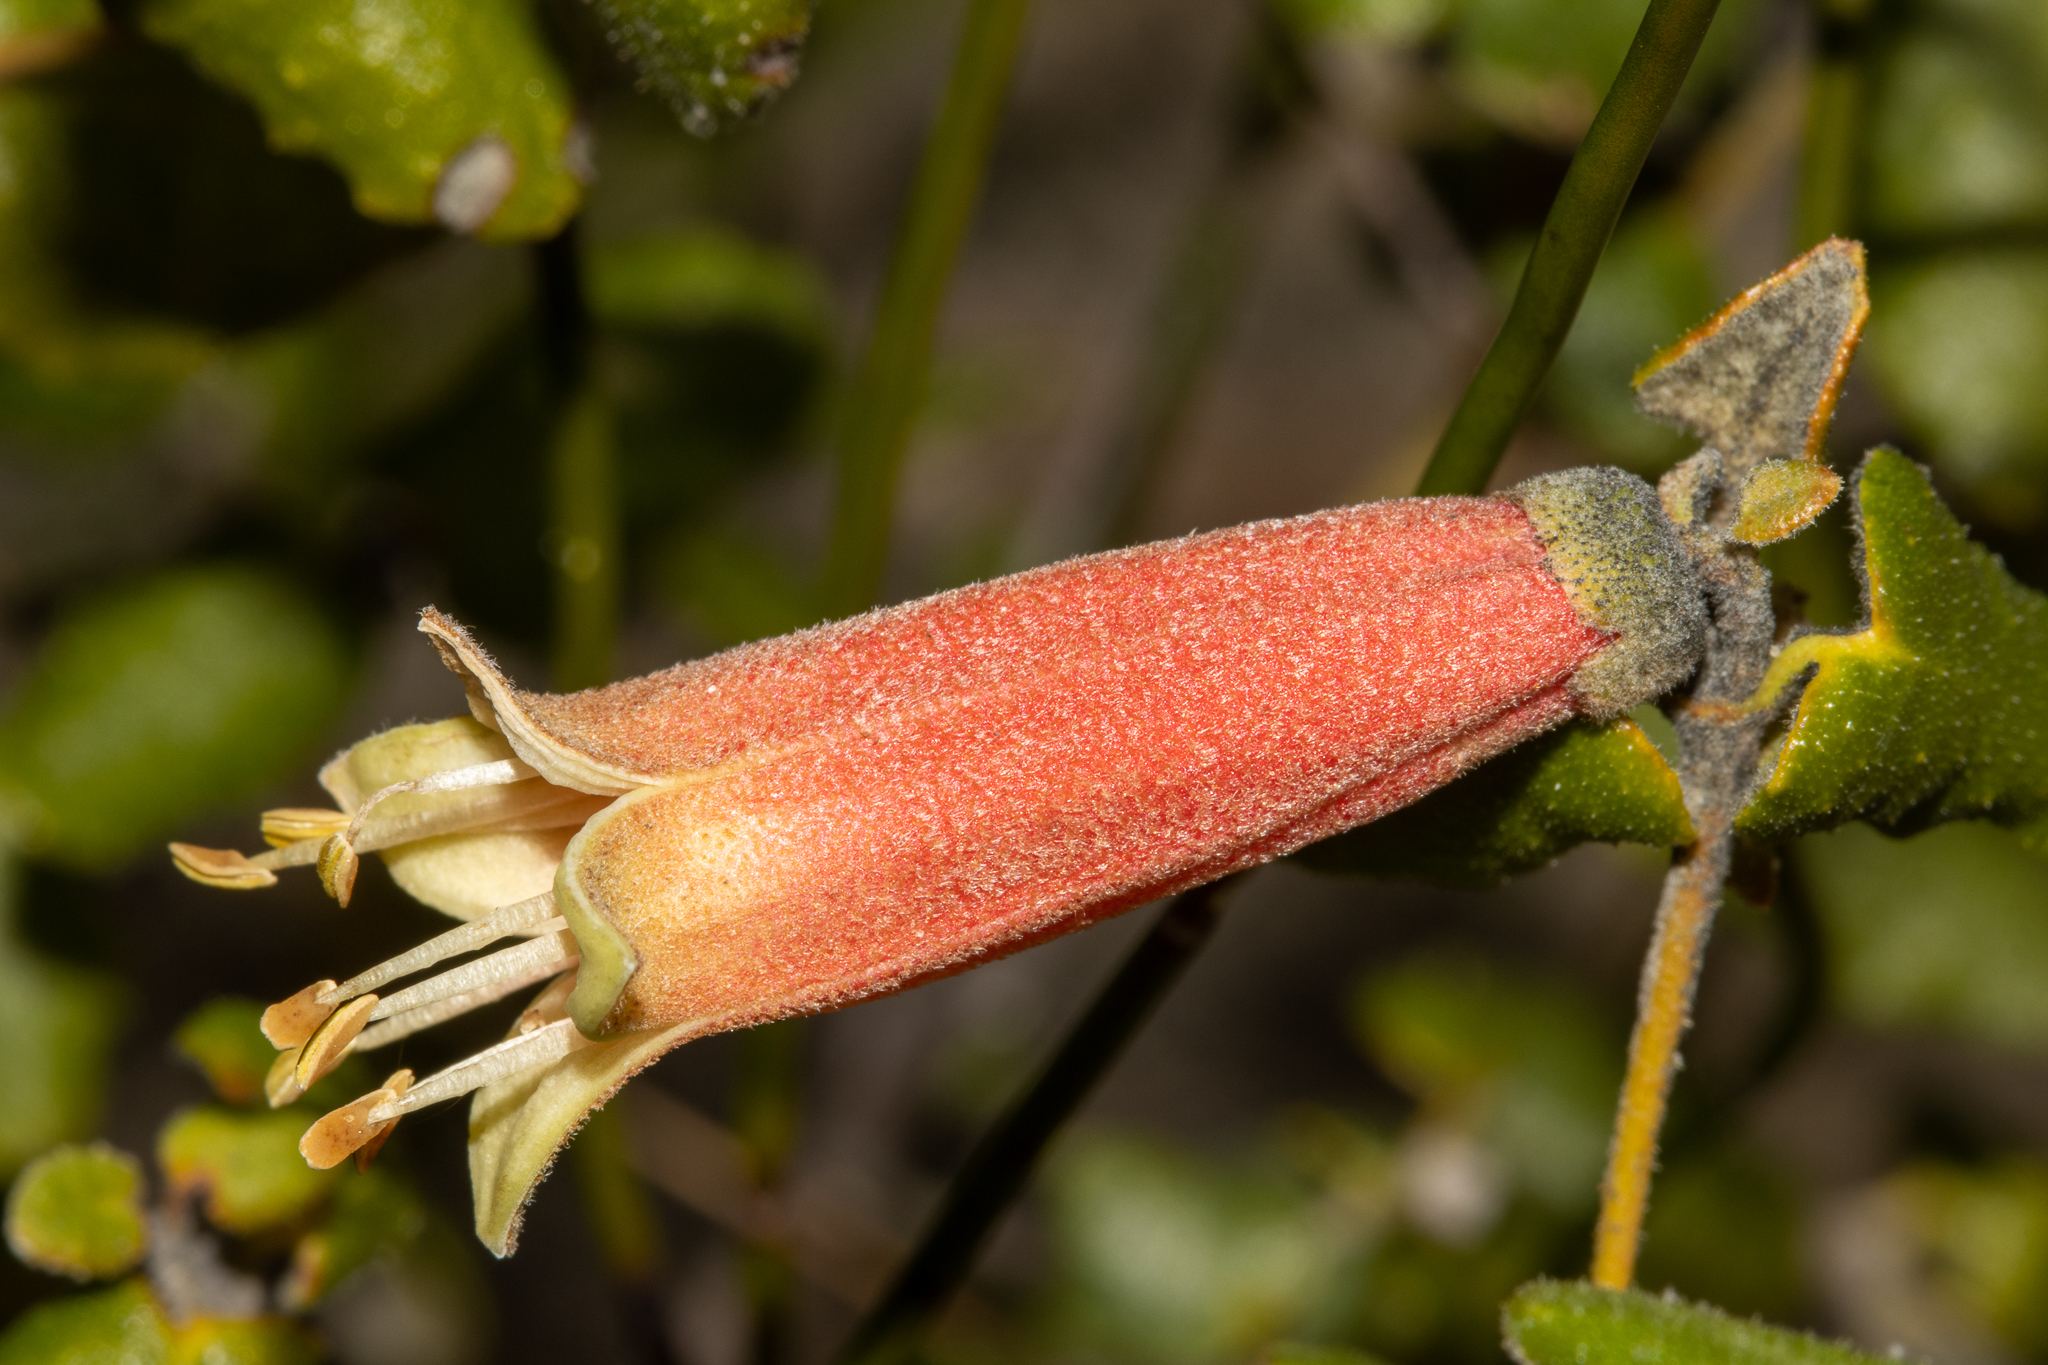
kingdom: Plantae
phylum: Tracheophyta
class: Magnoliopsida
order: Sapindales
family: Rutaceae
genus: Correa
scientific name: Correa reflexa
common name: Common correa
